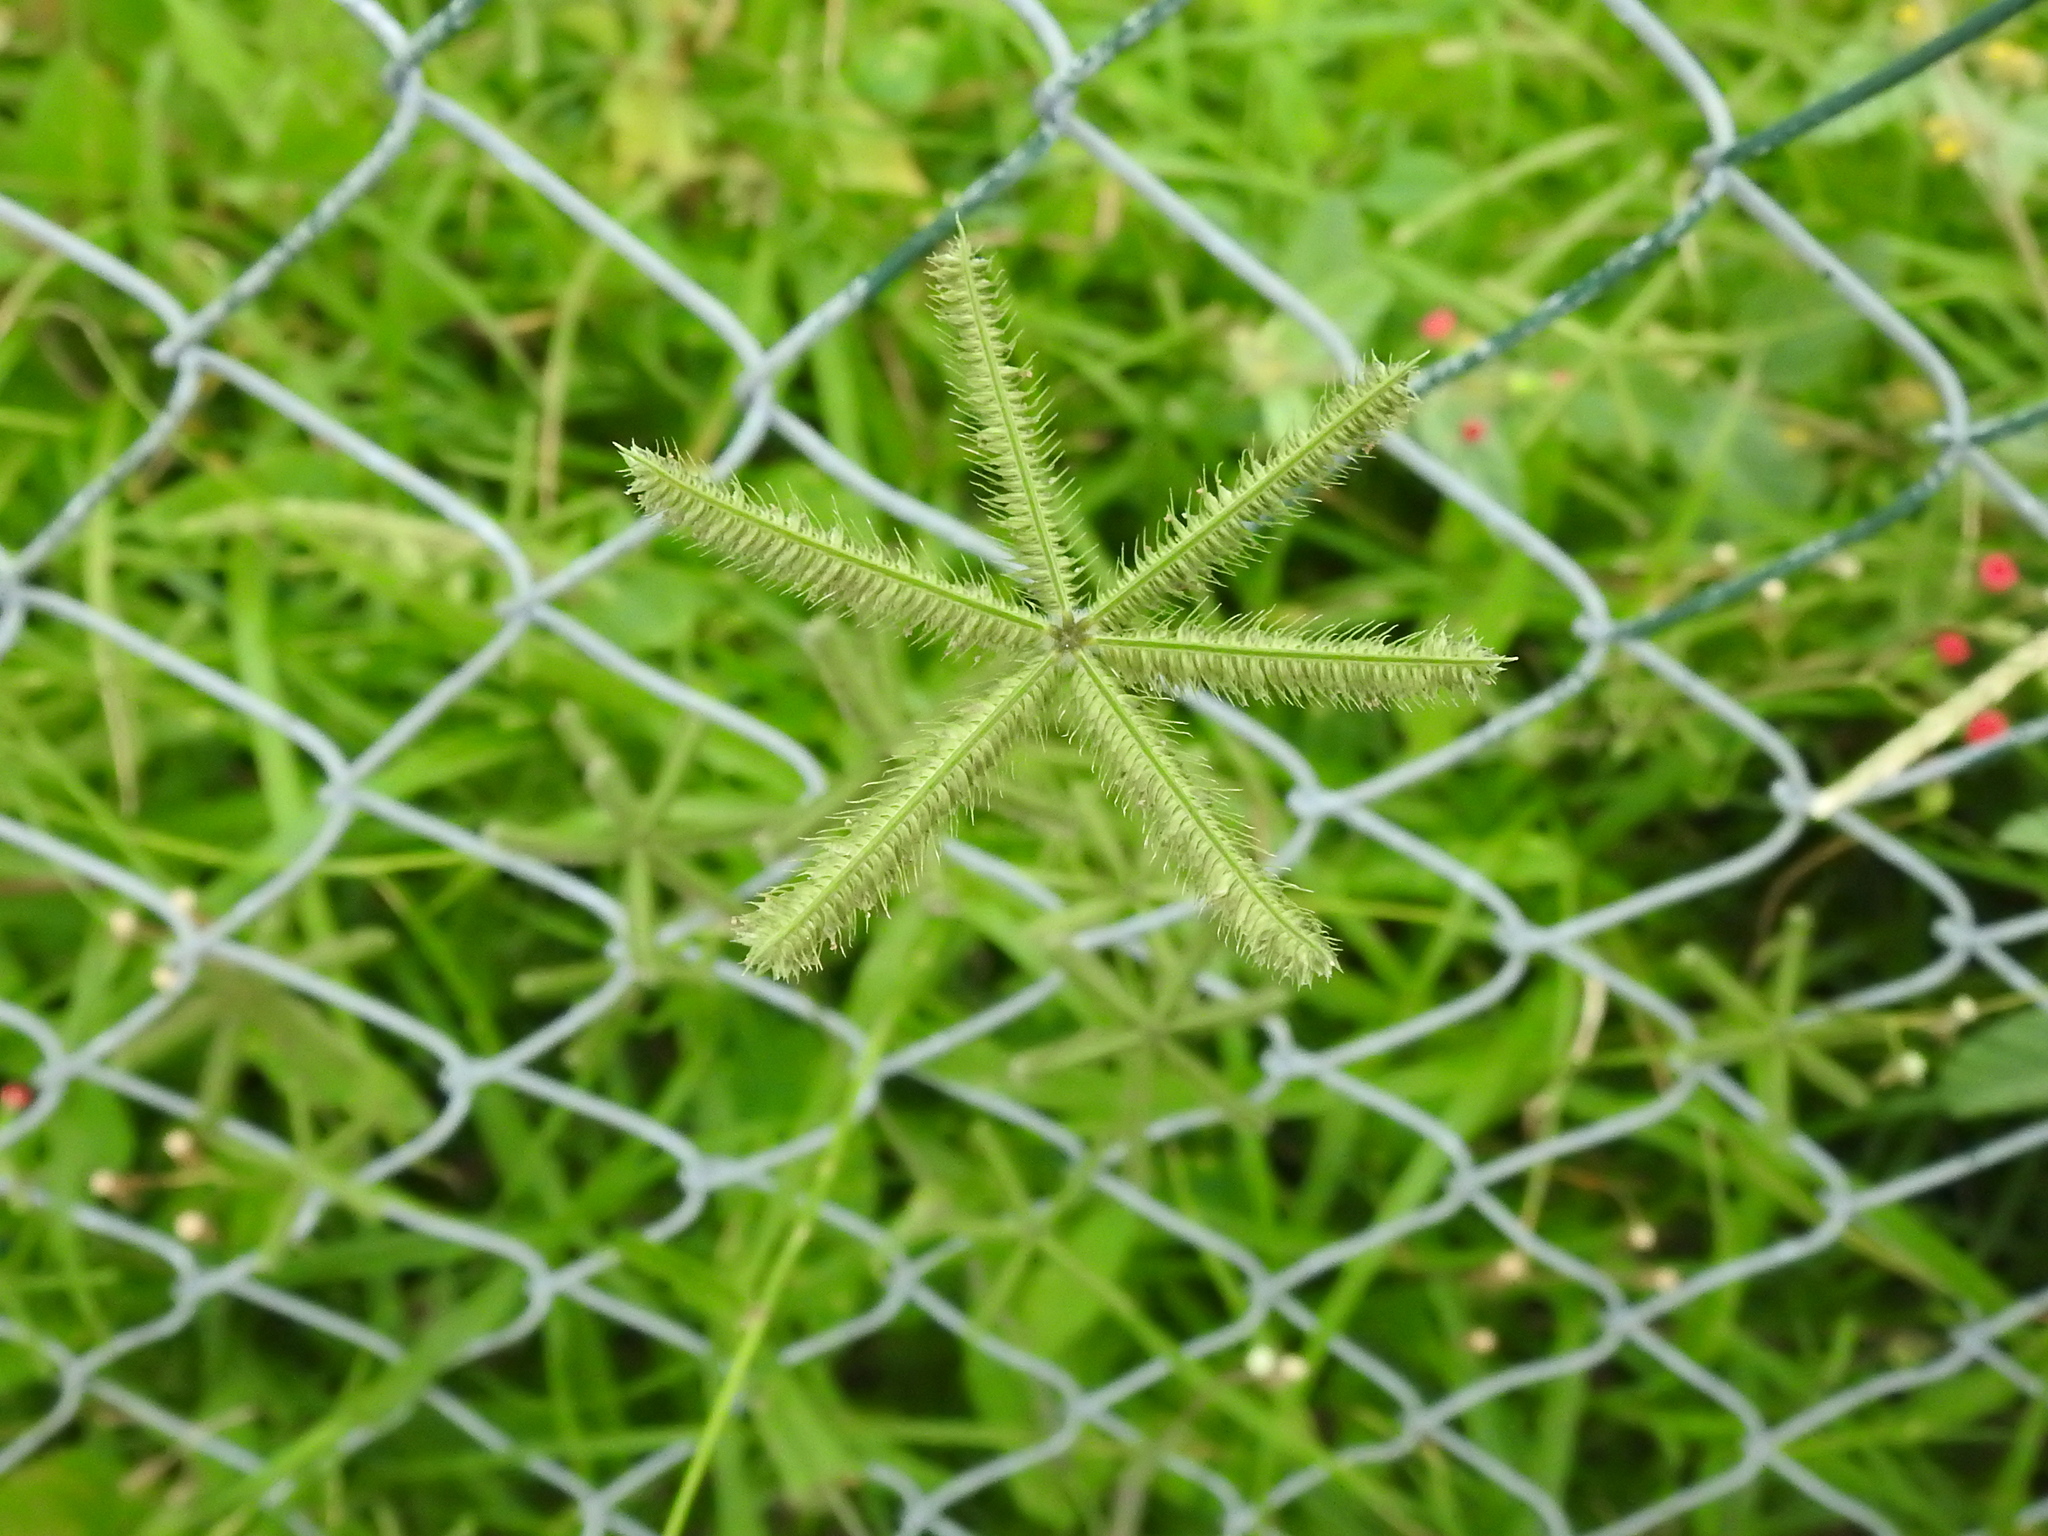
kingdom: Plantae
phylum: Tracheophyta
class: Liliopsida
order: Poales
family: Poaceae
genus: Dactyloctenium
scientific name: Dactyloctenium aegyptium
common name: Egyptian grass
